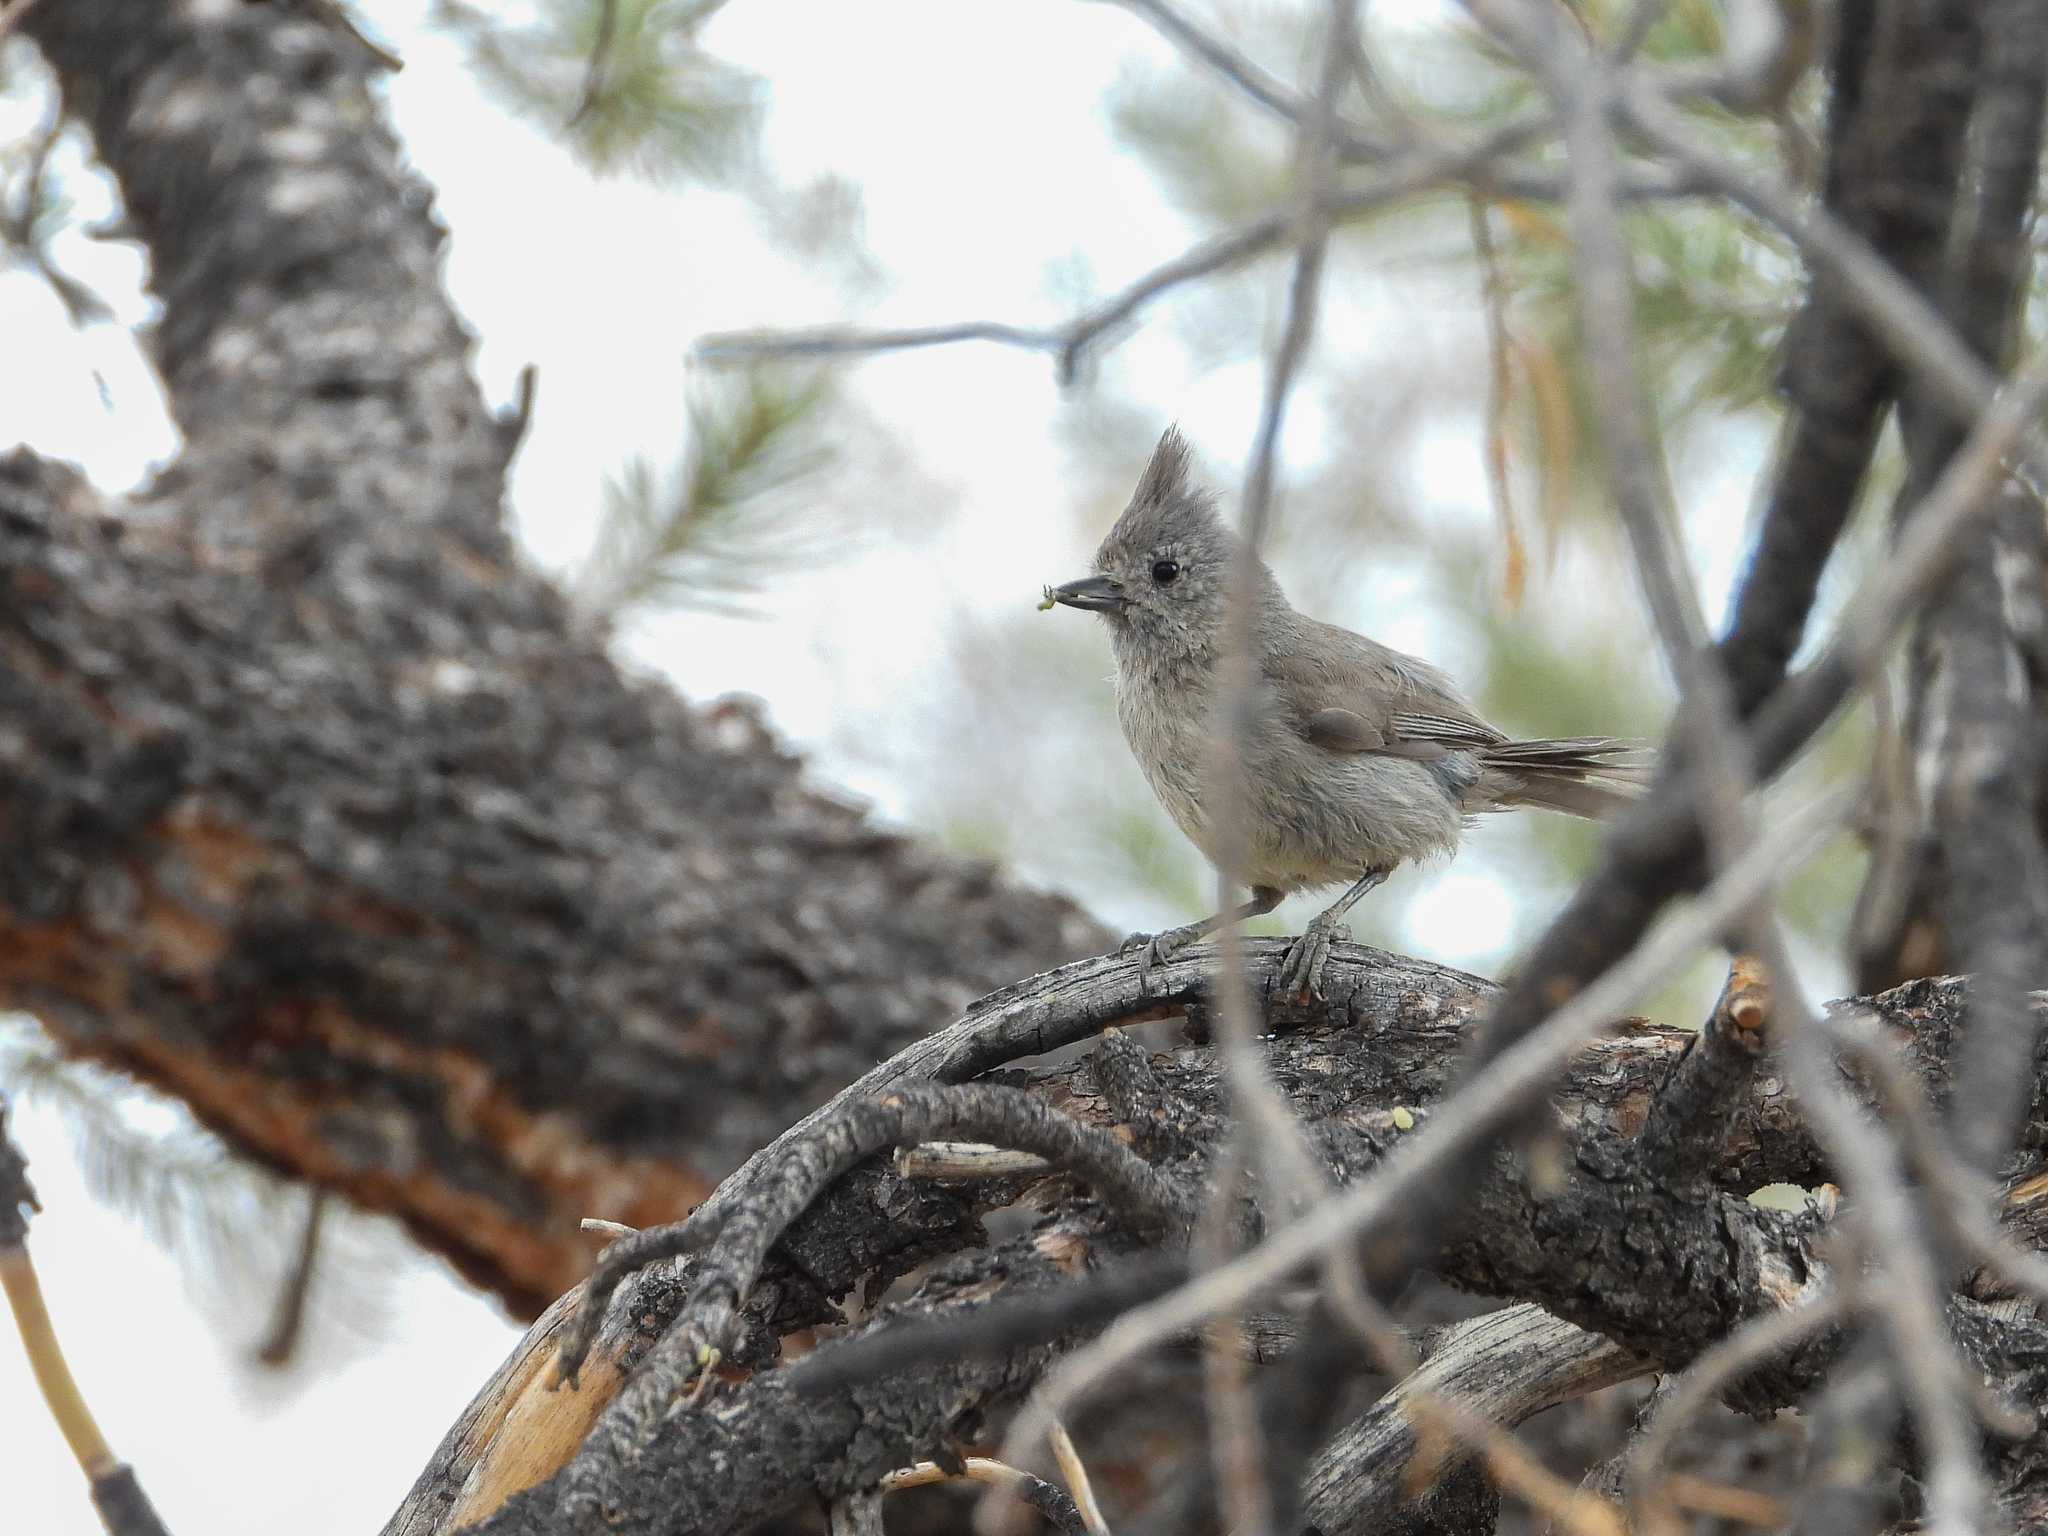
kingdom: Animalia
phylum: Chordata
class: Aves
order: Passeriformes
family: Paridae
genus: Baeolophus
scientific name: Baeolophus ridgwayi
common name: Juniper titmouse
